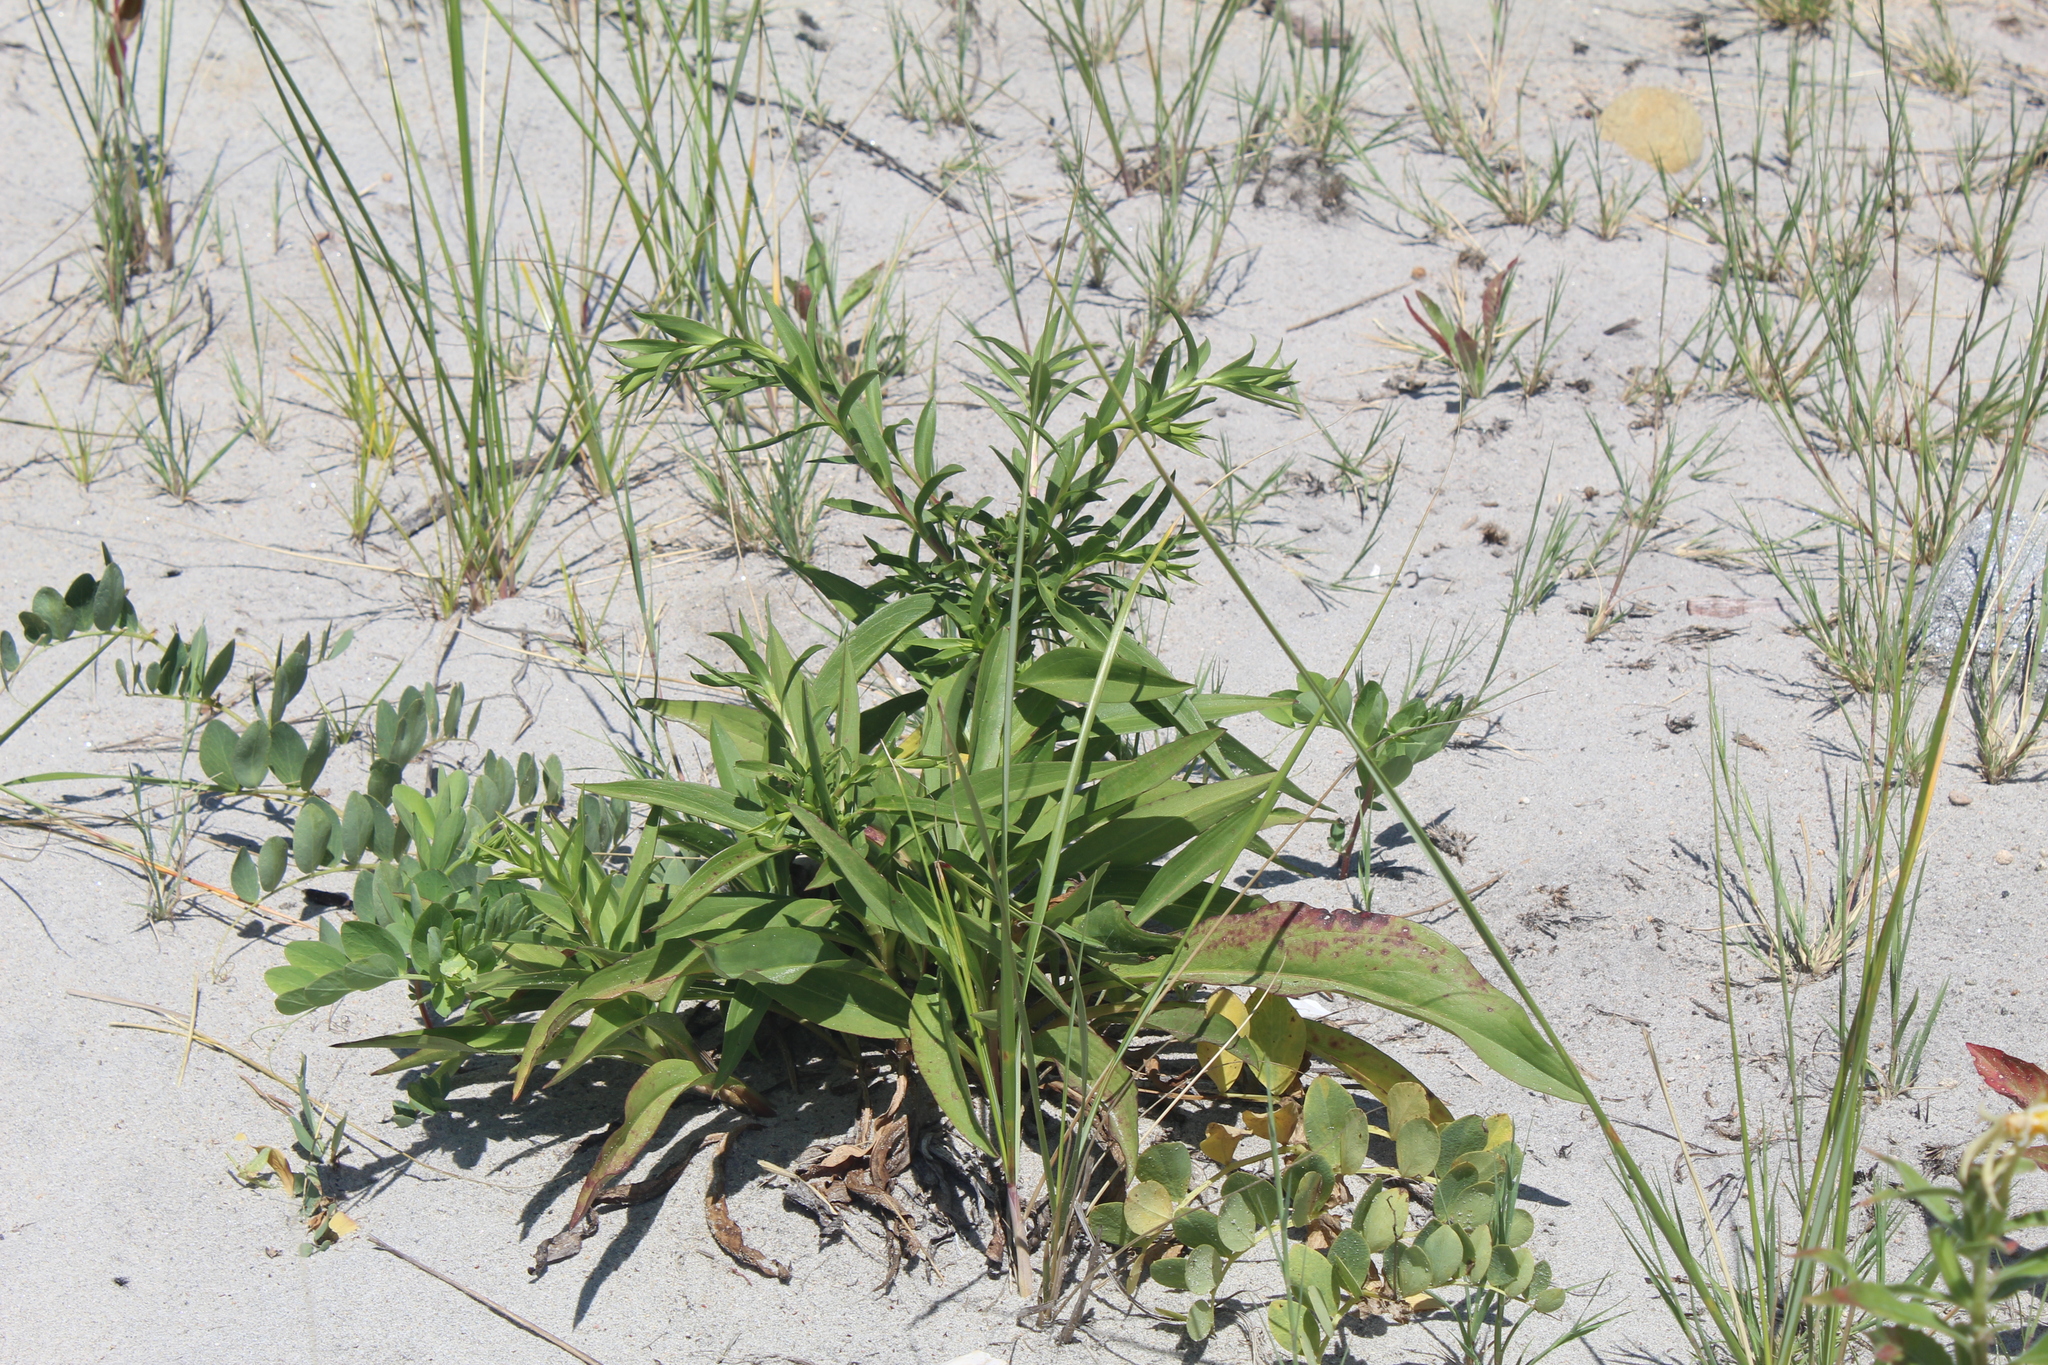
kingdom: Plantae
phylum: Tracheophyta
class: Magnoliopsida
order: Asterales
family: Asteraceae
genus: Solidago
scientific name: Solidago sempervirens
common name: Salt-marsh goldenrod
